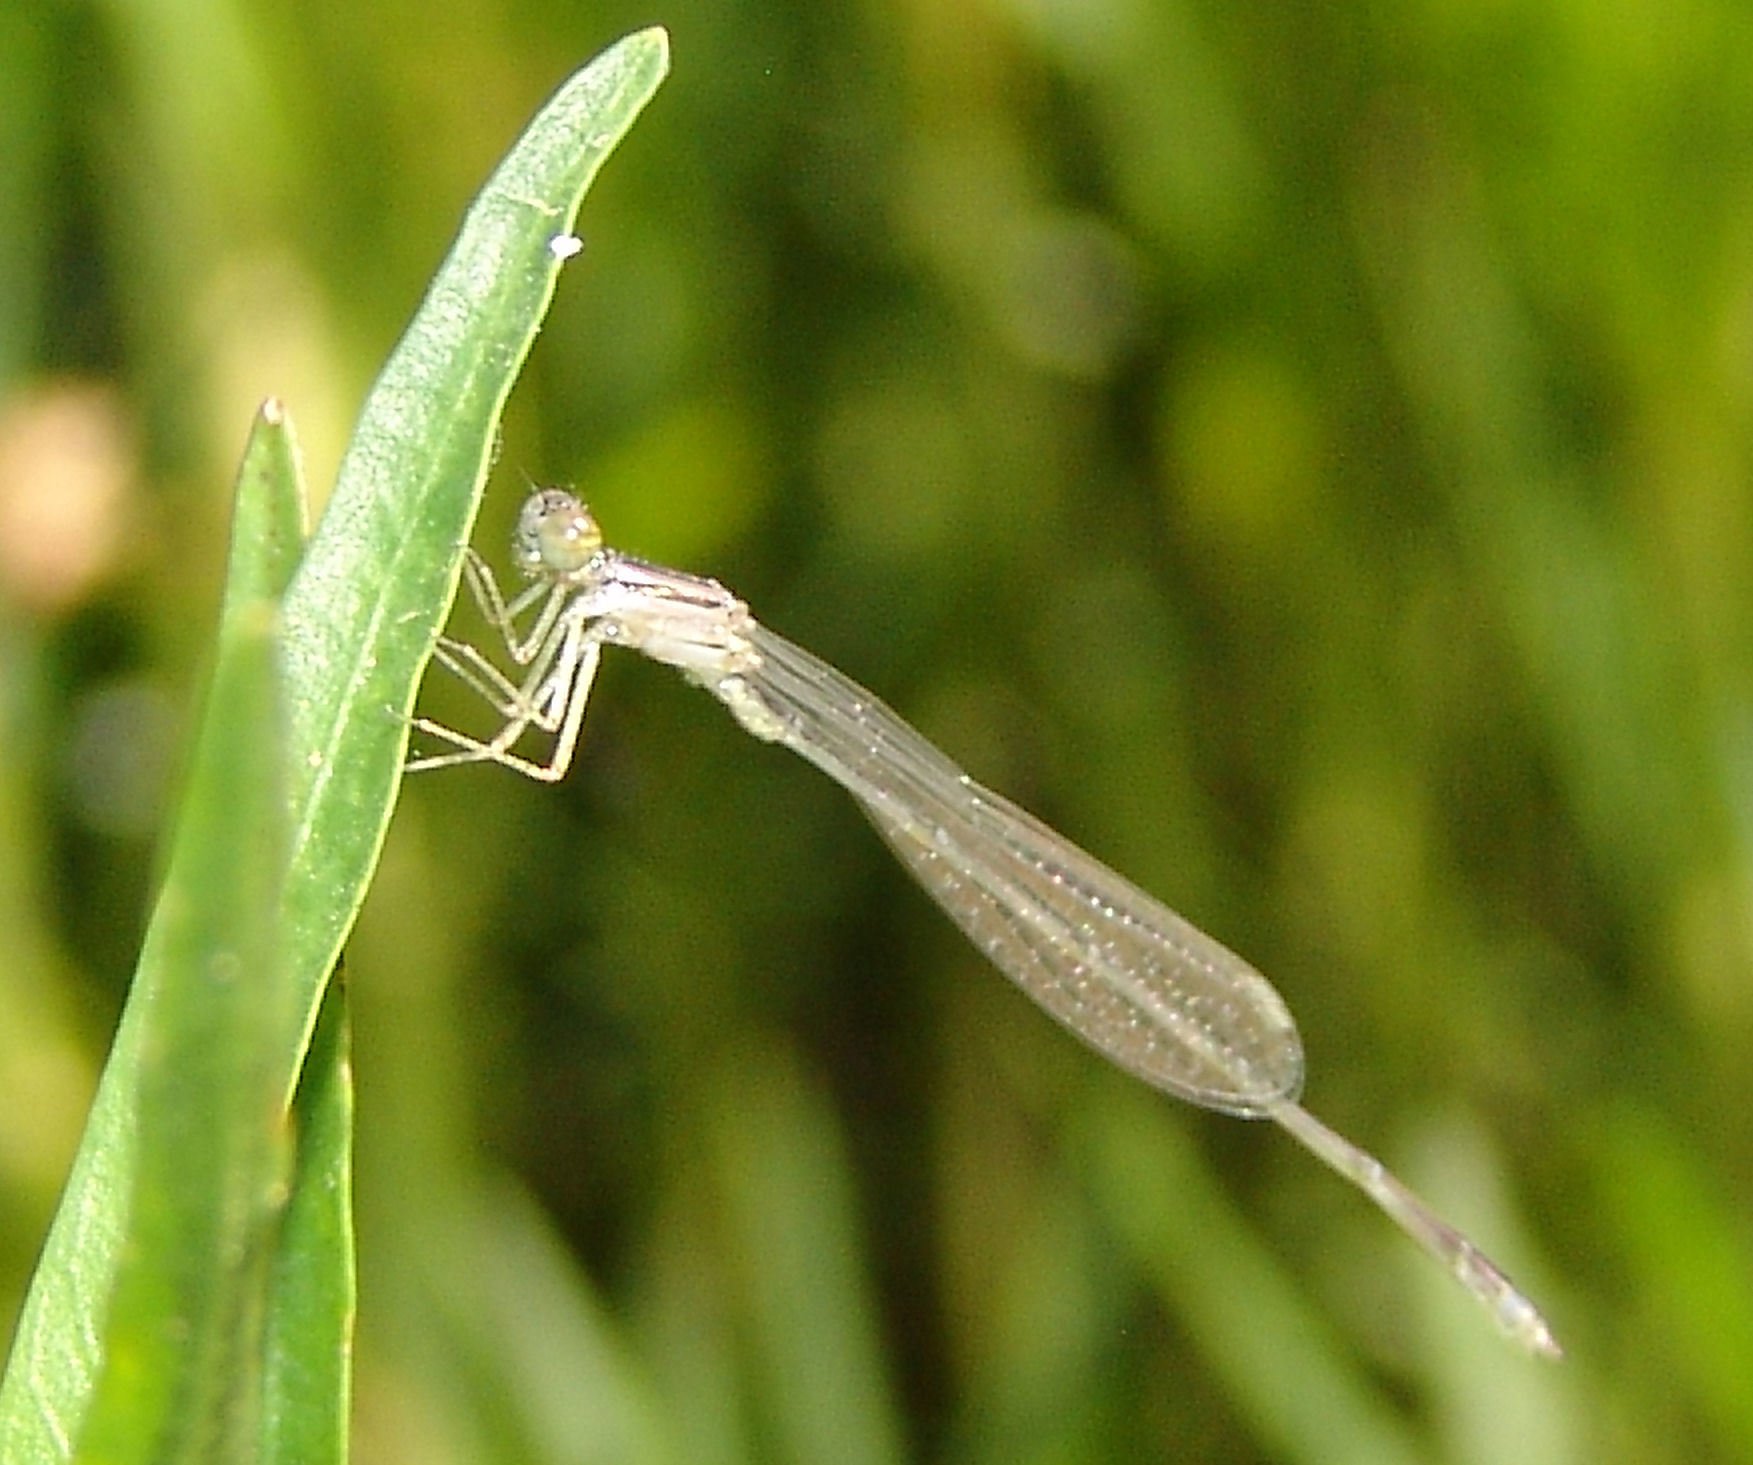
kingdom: Animalia
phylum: Arthropoda
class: Insecta
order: Odonata
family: Coenagrionidae
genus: Enallagma
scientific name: Enallagma signatum
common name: Orange bluet
